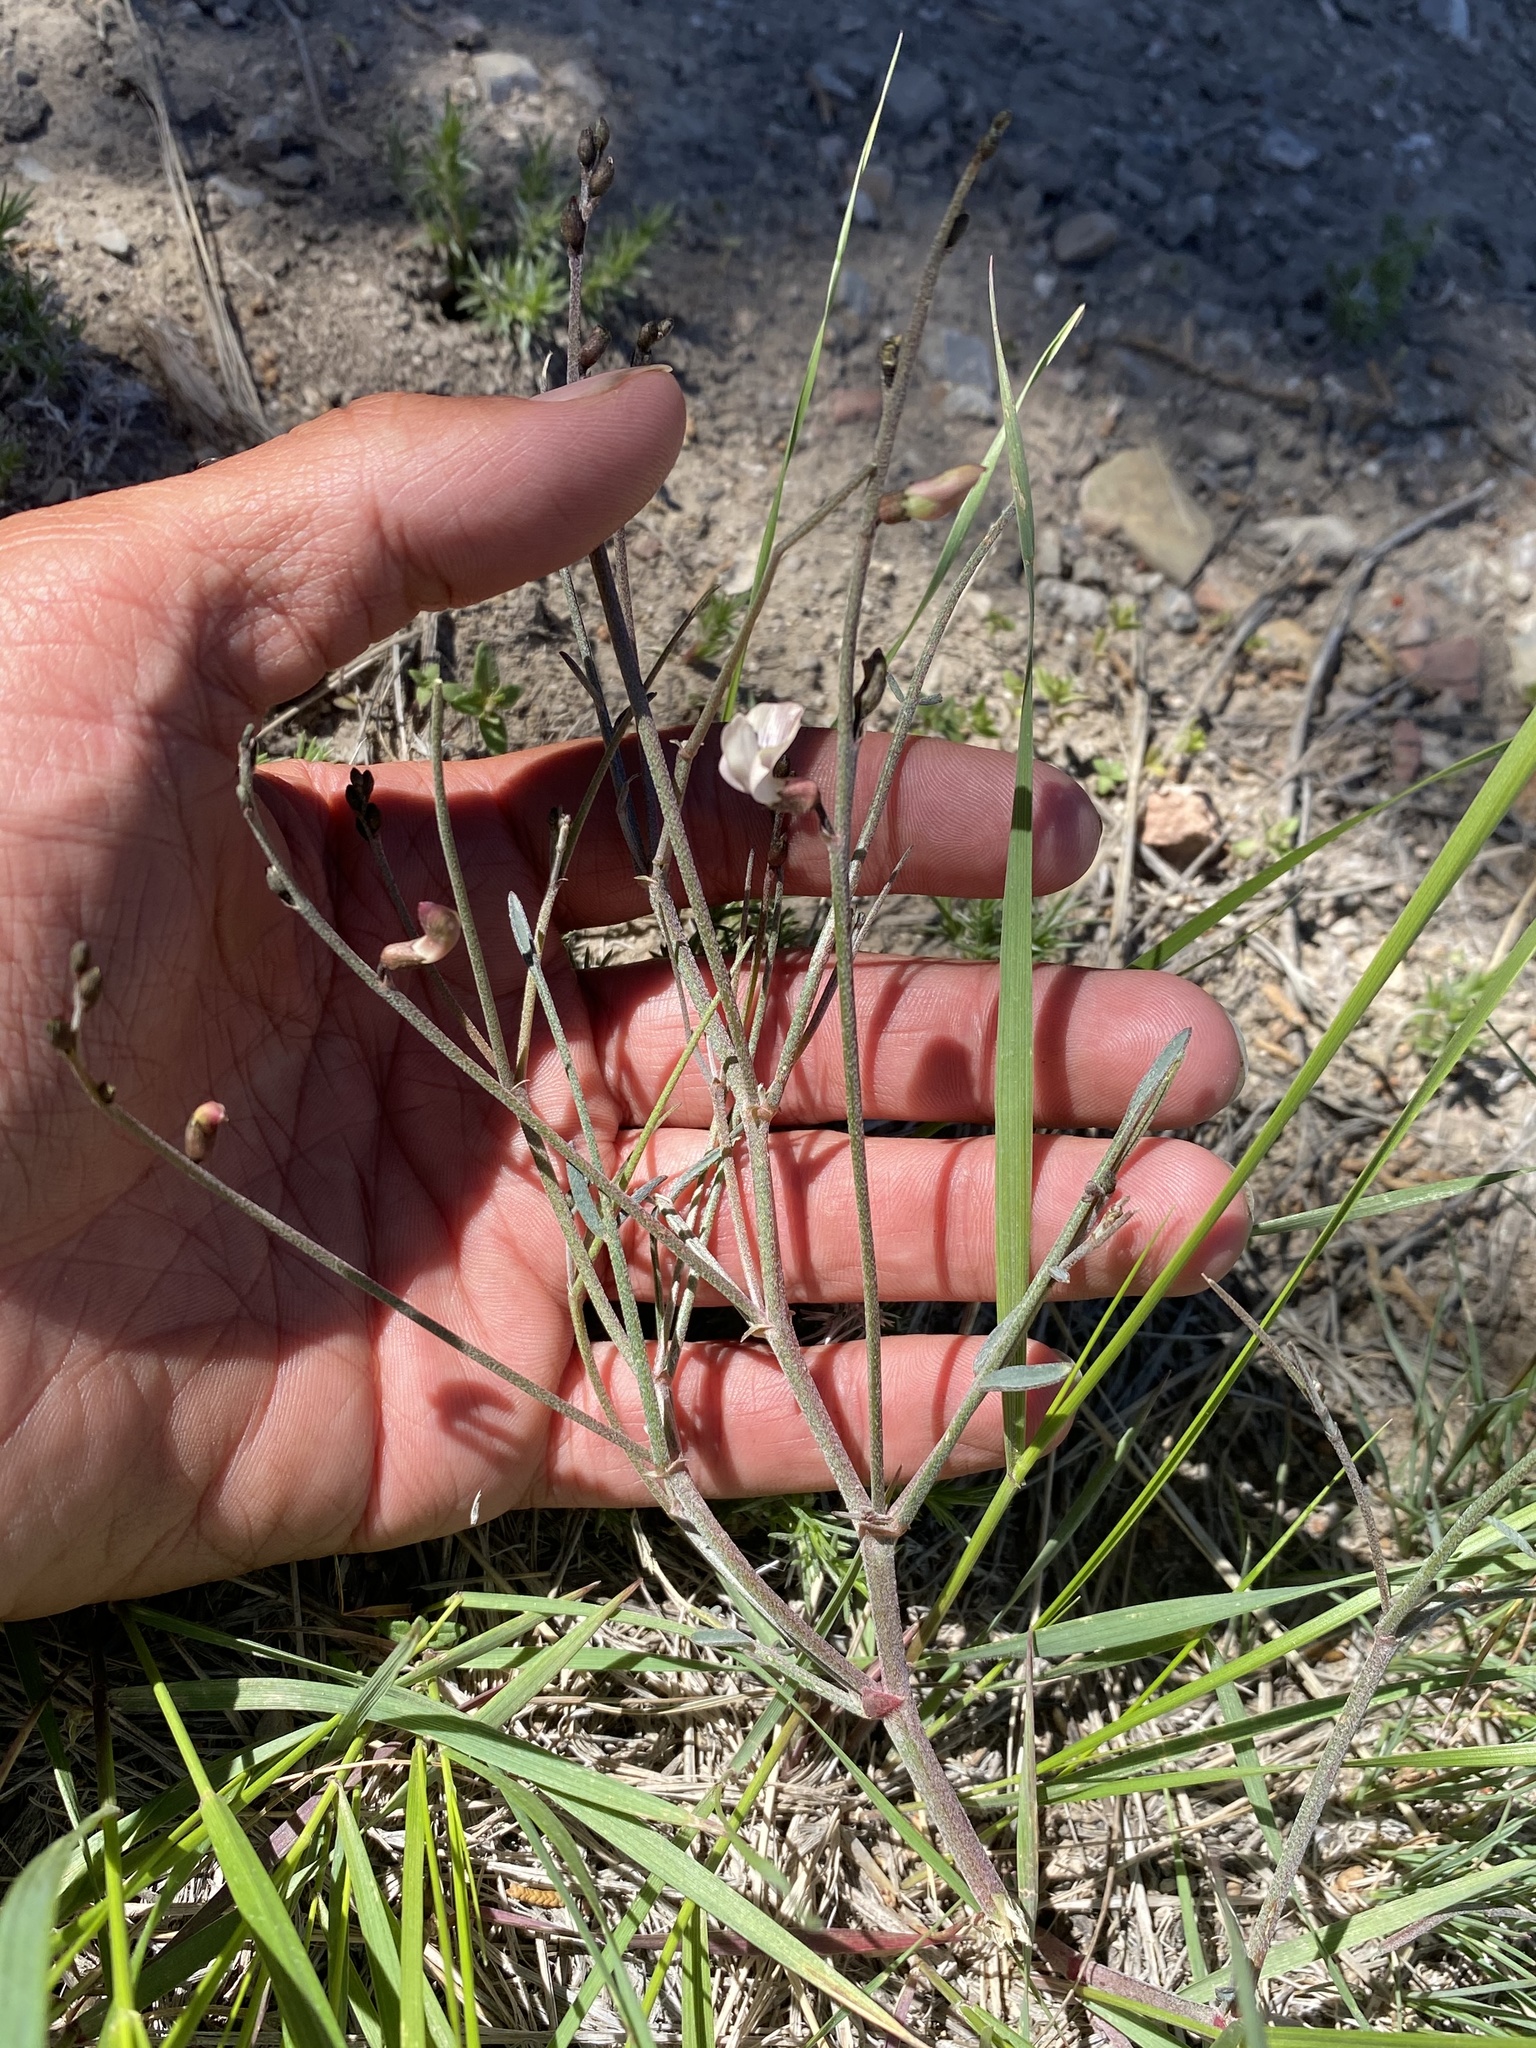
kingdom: Plantae
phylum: Tracheophyta
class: Magnoliopsida
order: Fabales
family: Fabaceae
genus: Astragalus
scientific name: Astragalus convallarius
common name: Lesser rushy milk-vetch
